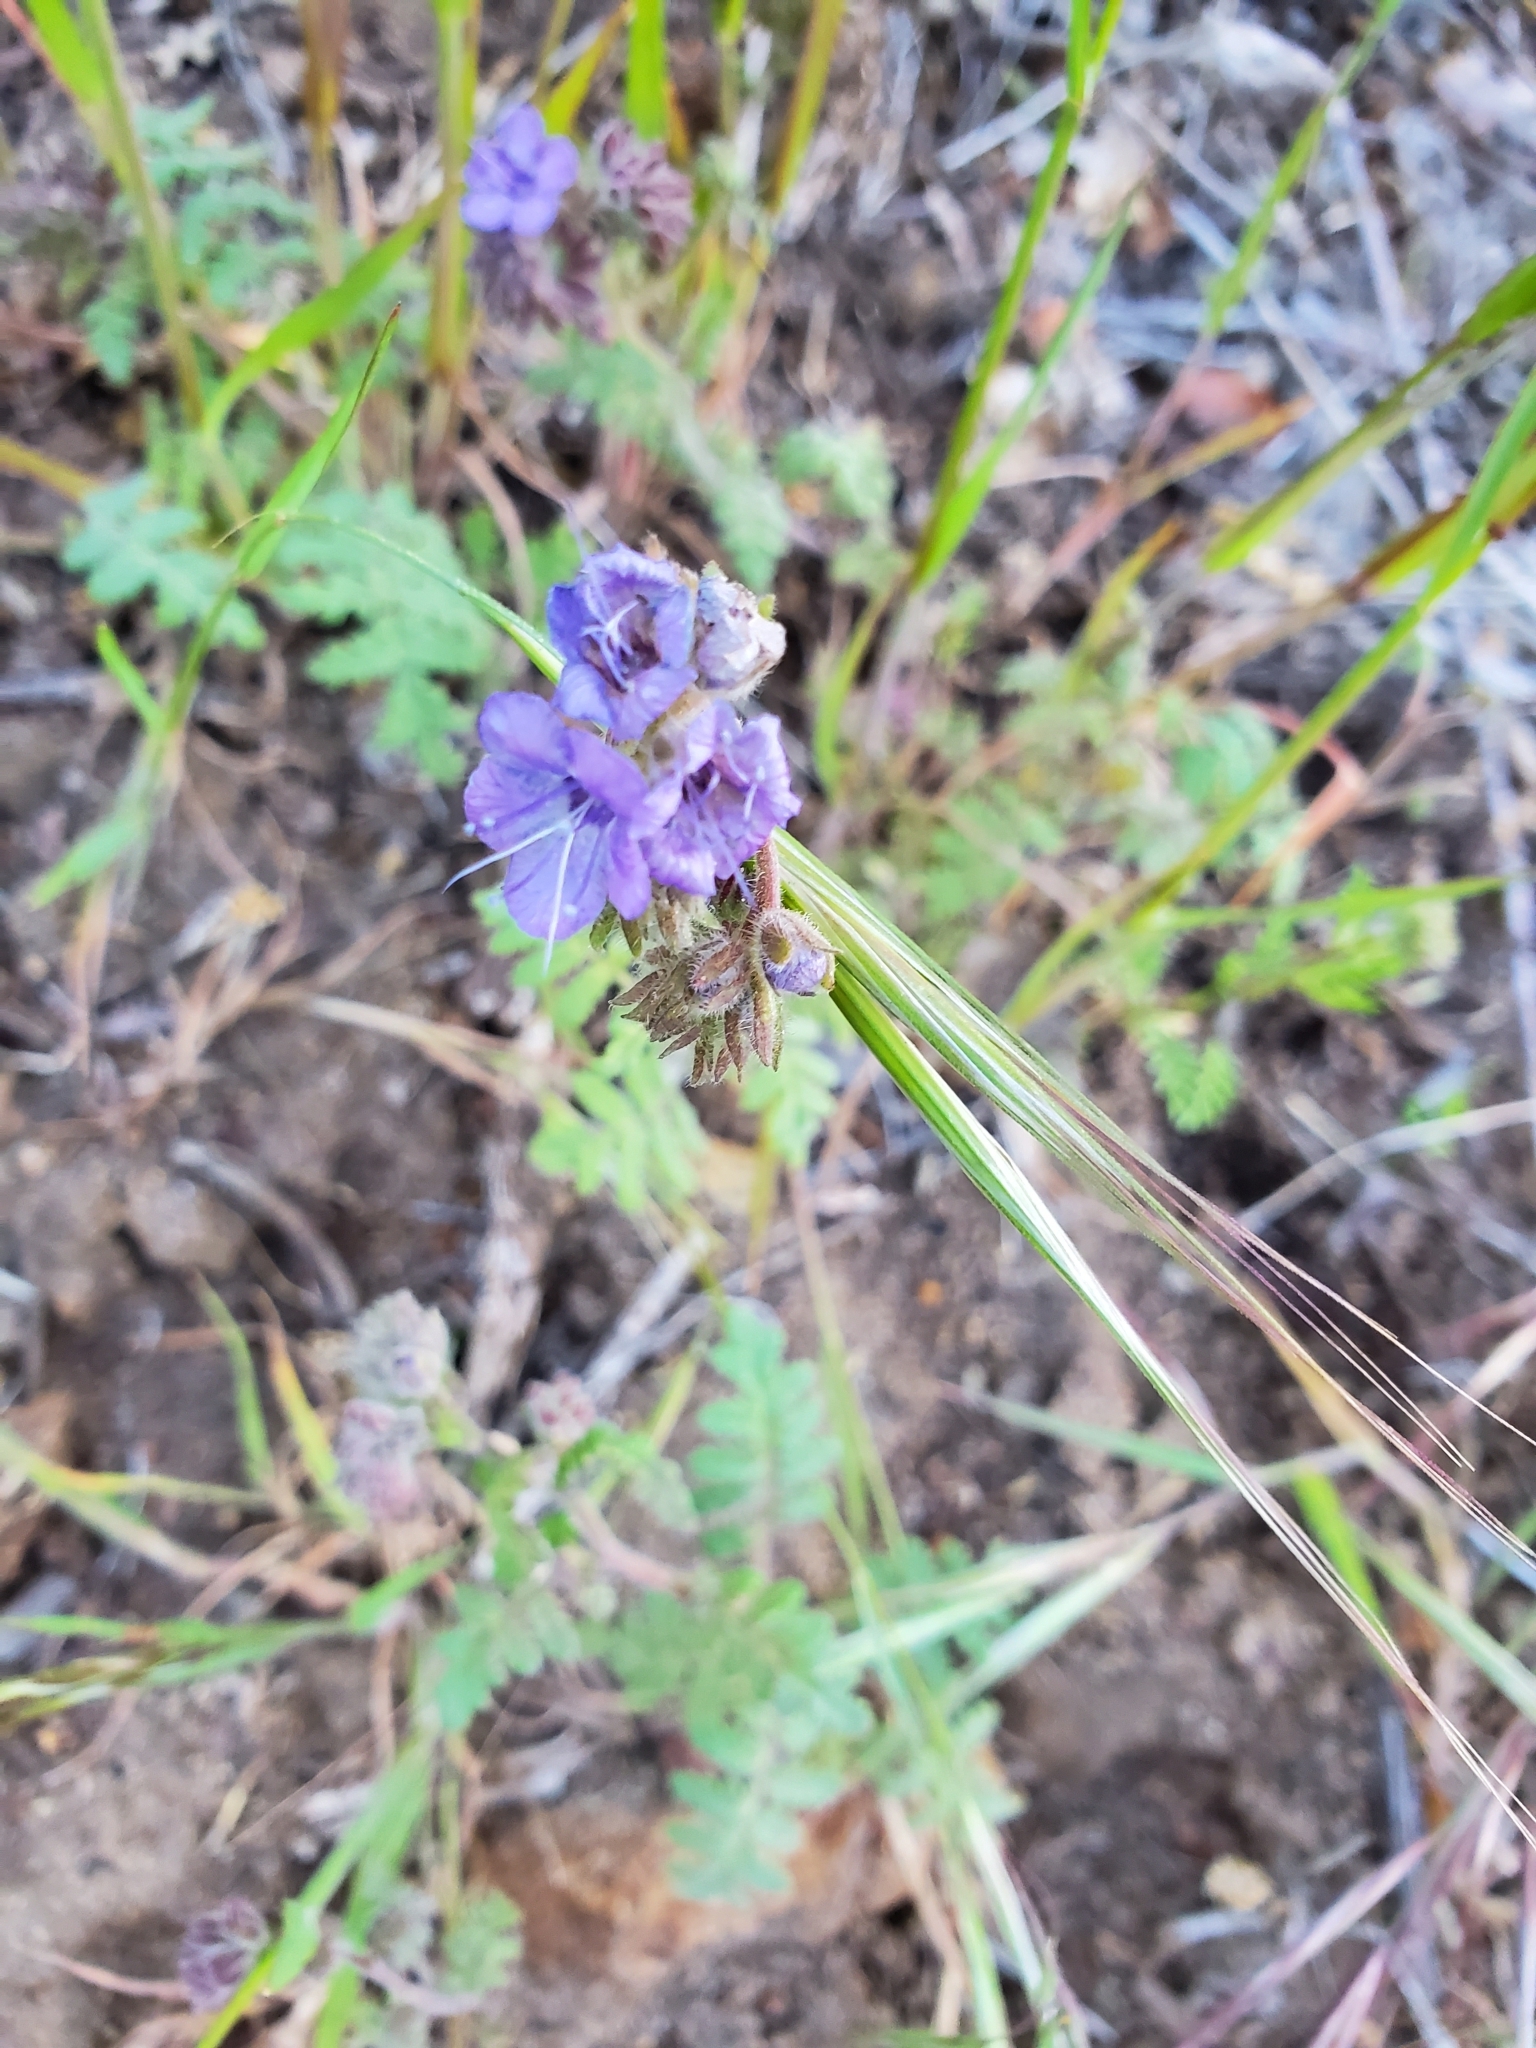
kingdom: Plantae
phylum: Tracheophyta
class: Magnoliopsida
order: Boraginales
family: Hydrophyllaceae
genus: Phacelia
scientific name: Phacelia distans
